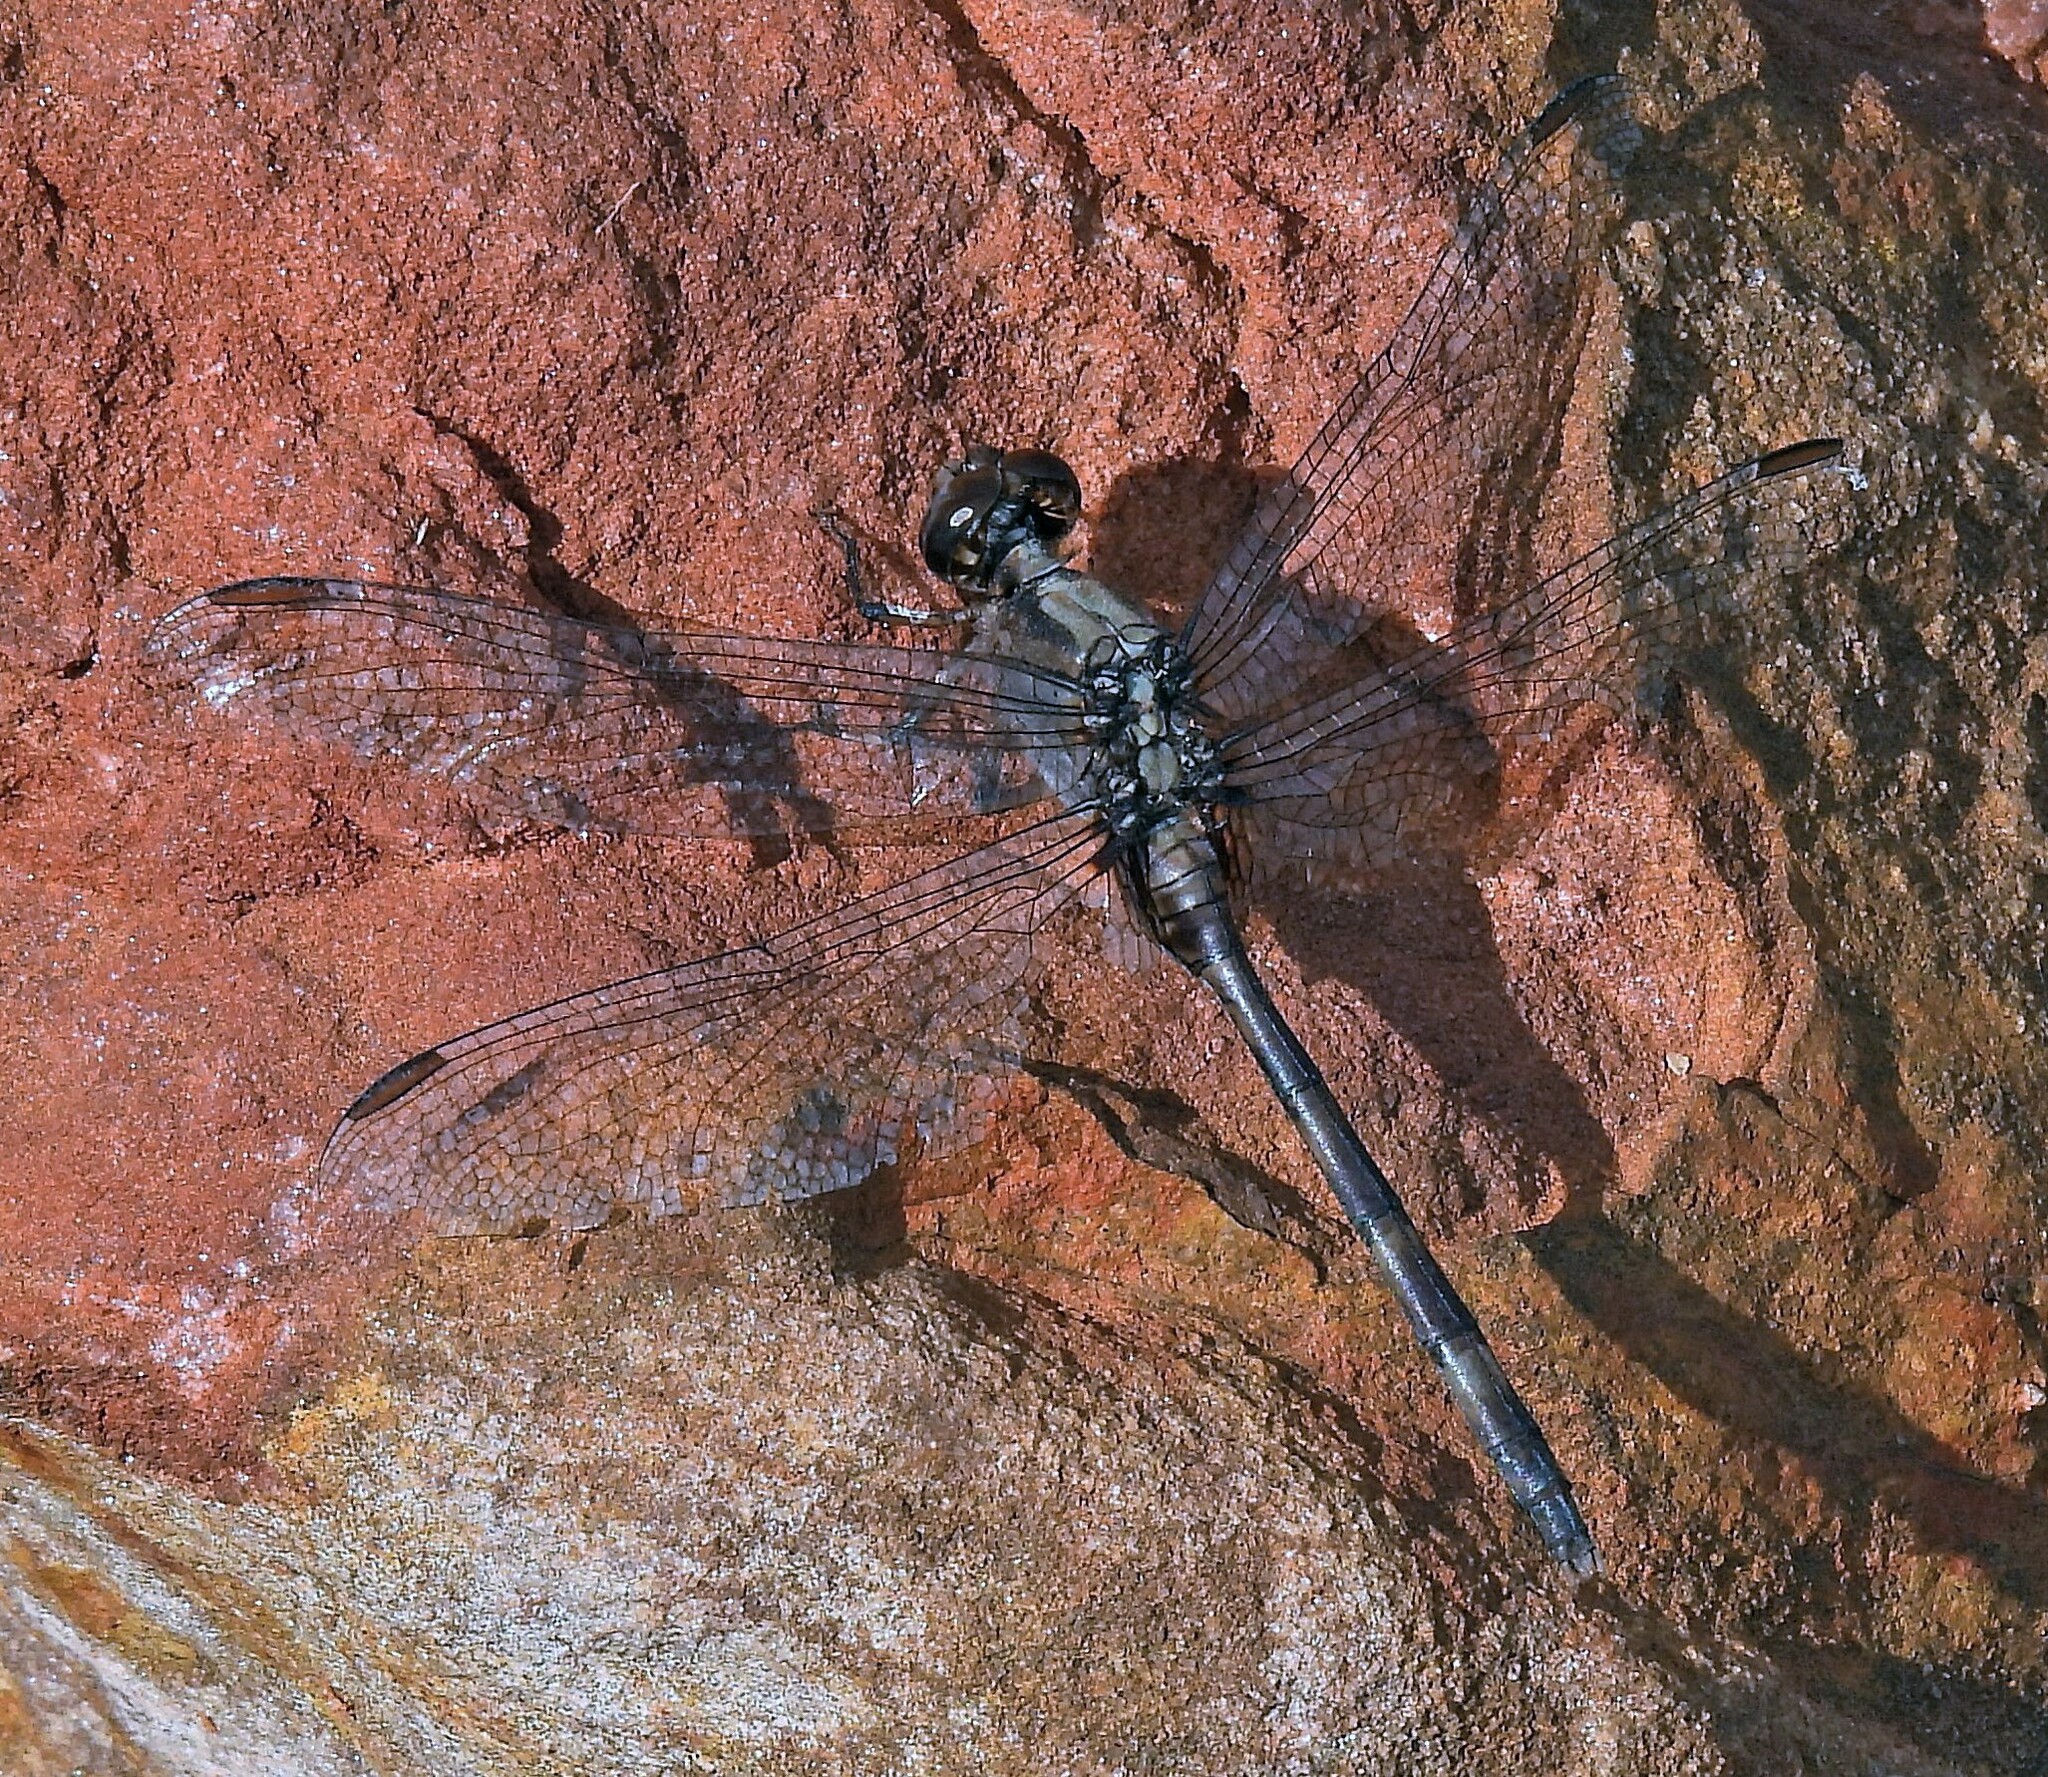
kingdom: Animalia
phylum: Arthropoda
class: Insecta
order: Odonata
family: Libellulidae
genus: Erythemis
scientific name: Erythemis plebeja
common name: Pin-tailed pondhawk
